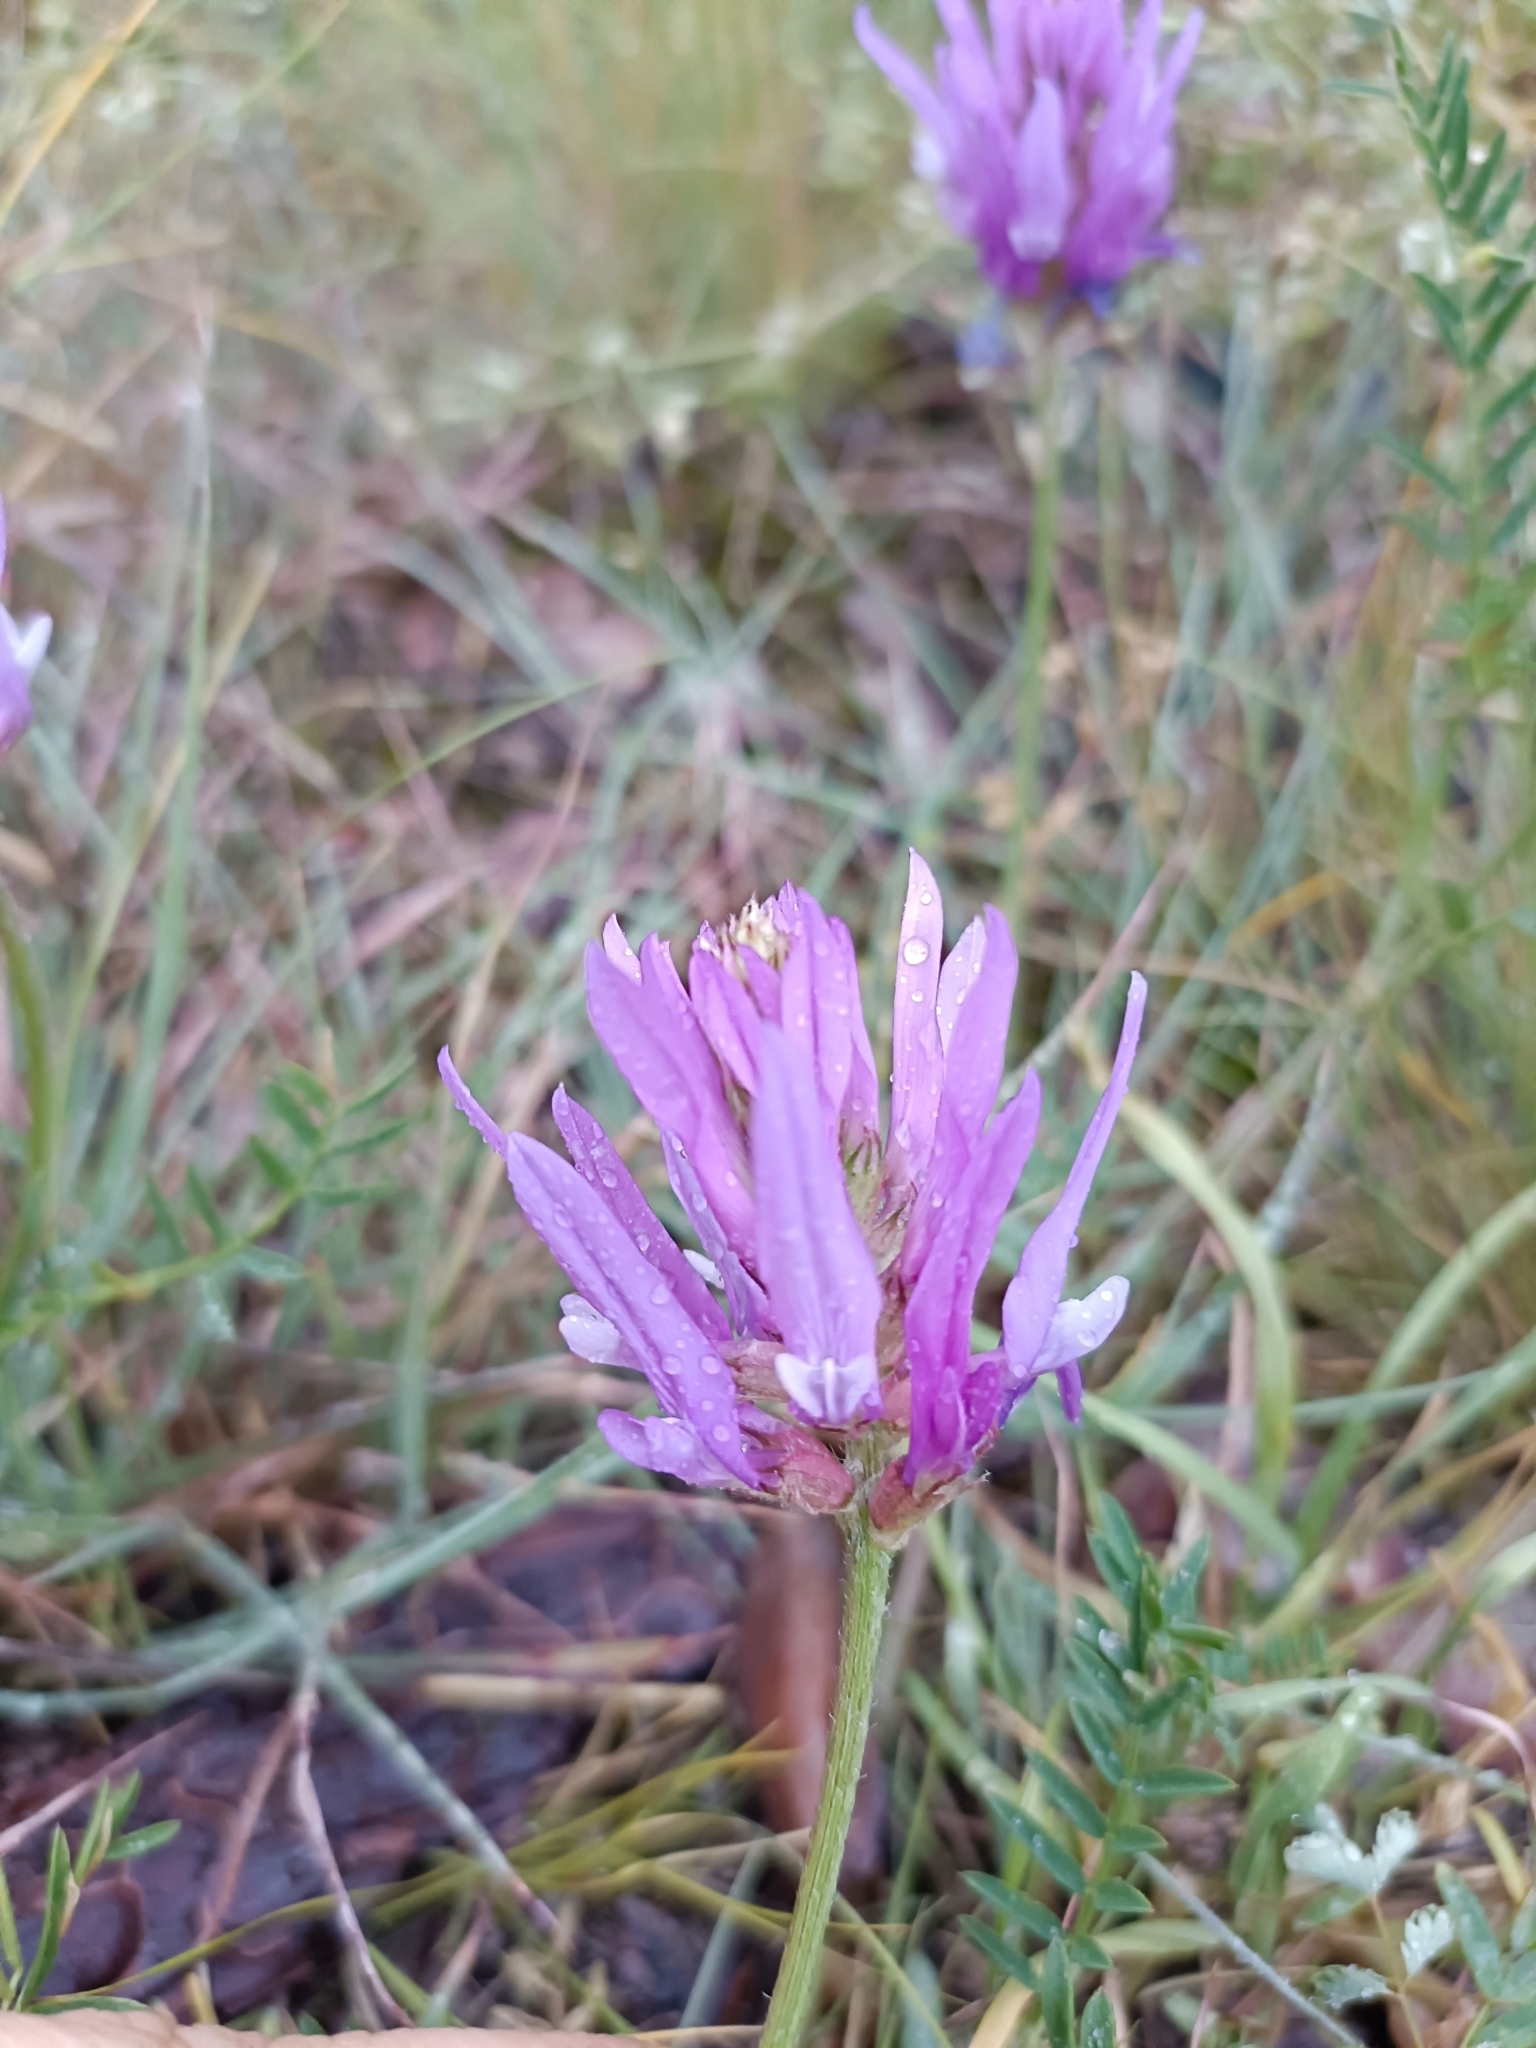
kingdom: Plantae
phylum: Tracheophyta
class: Magnoliopsida
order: Fabales
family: Fabaceae
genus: Astragalus
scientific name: Astragalus onobrychis
